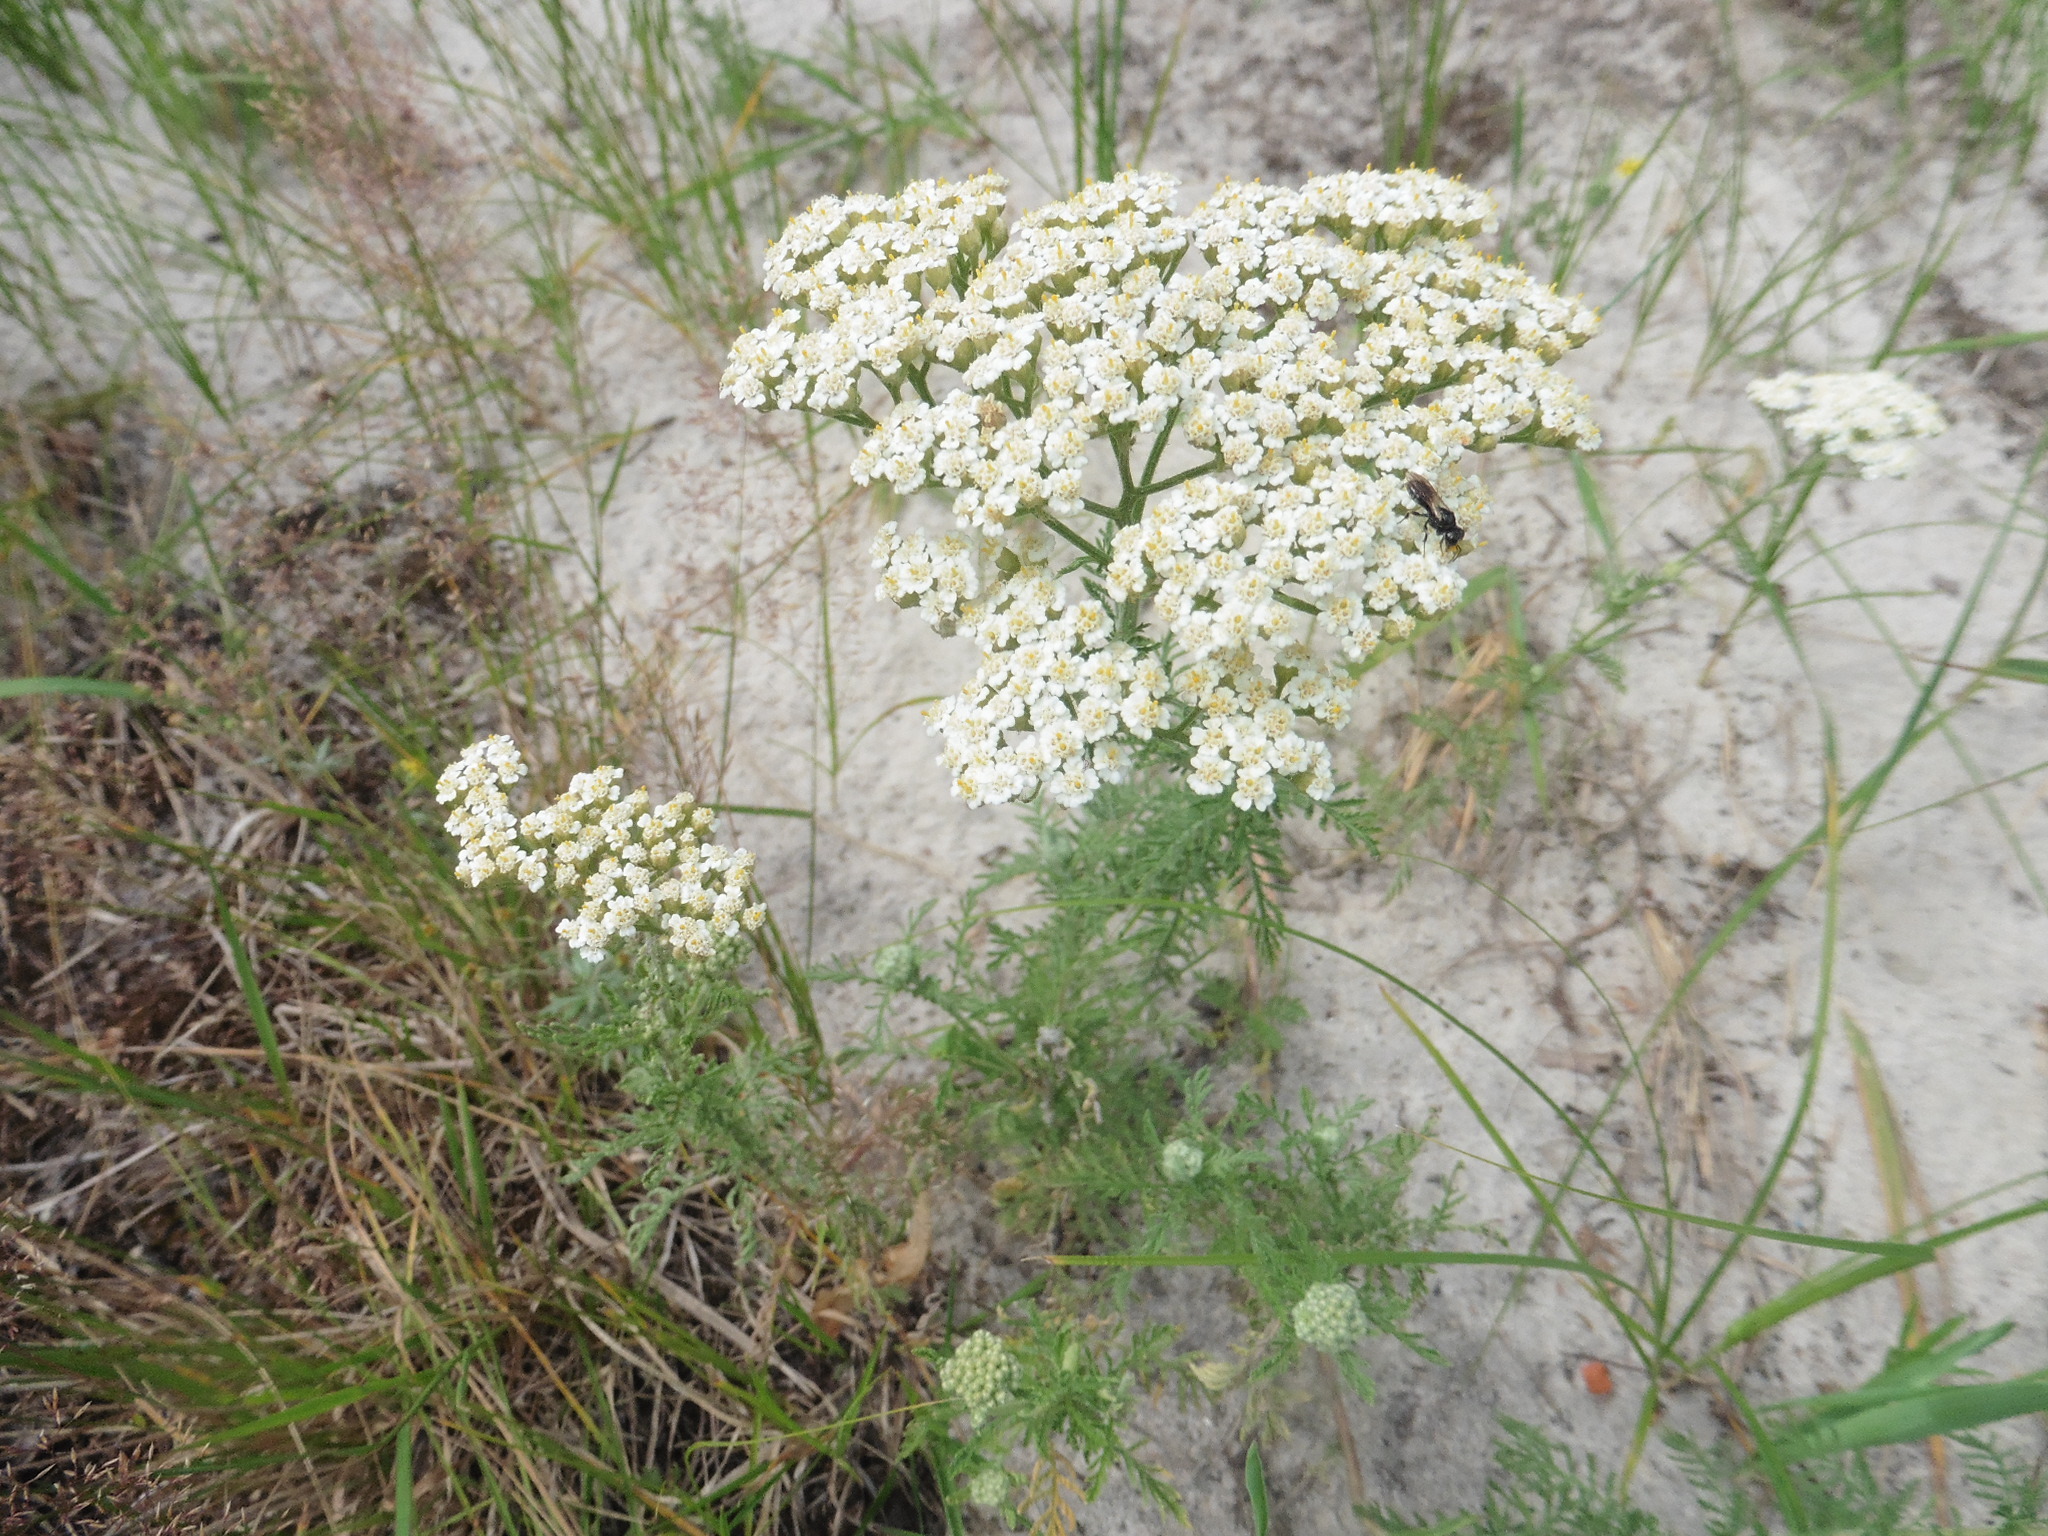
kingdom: Plantae
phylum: Tracheophyta
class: Magnoliopsida
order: Asterales
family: Asteraceae
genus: Achillea
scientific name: Achillea nobilis
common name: Noble yarrow
